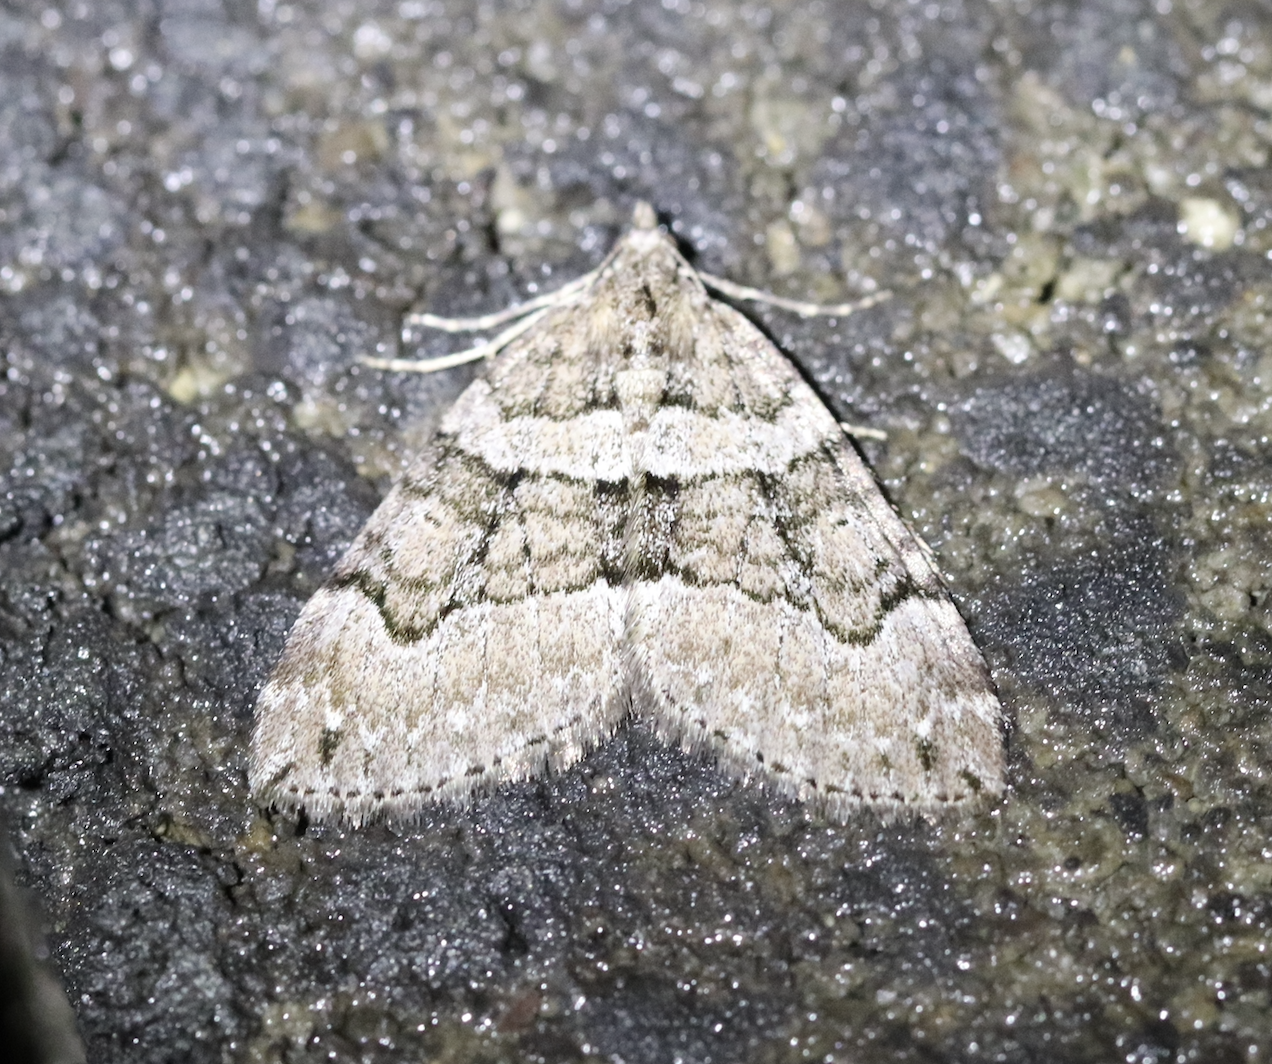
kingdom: Animalia
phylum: Arthropoda
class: Insecta
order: Lepidoptera
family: Geometridae
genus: Thera
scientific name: Thera cognata
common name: Chestnut-coloured carpet
